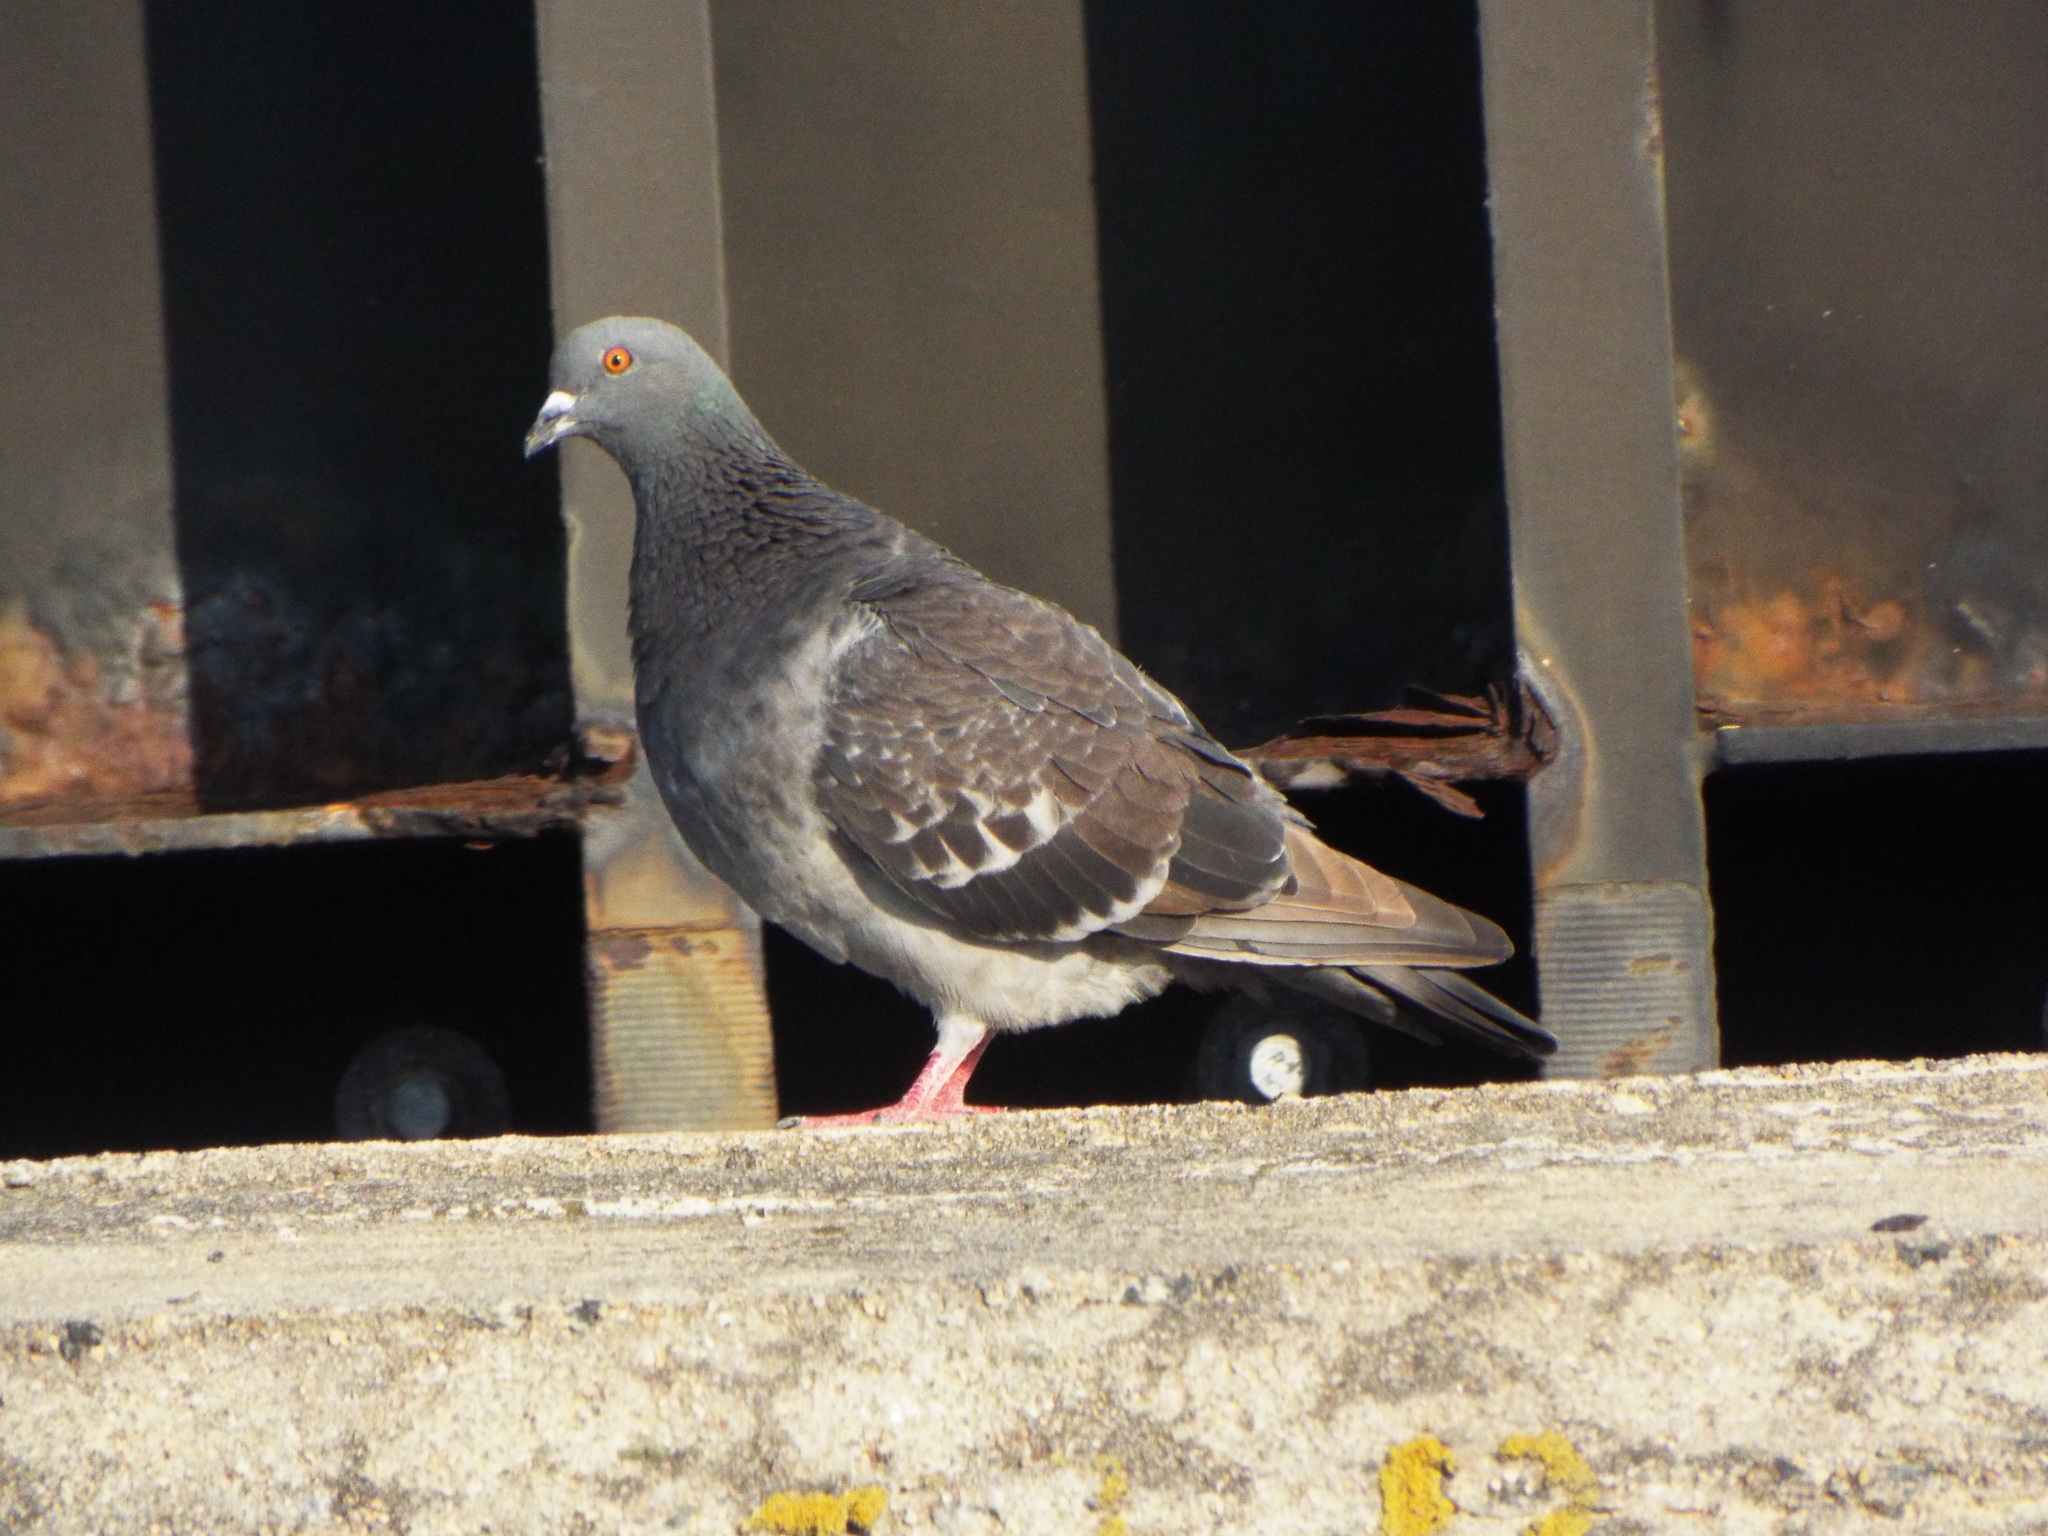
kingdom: Animalia
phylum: Chordata
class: Aves
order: Columbiformes
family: Columbidae
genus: Columba
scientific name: Columba livia
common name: Rock pigeon
